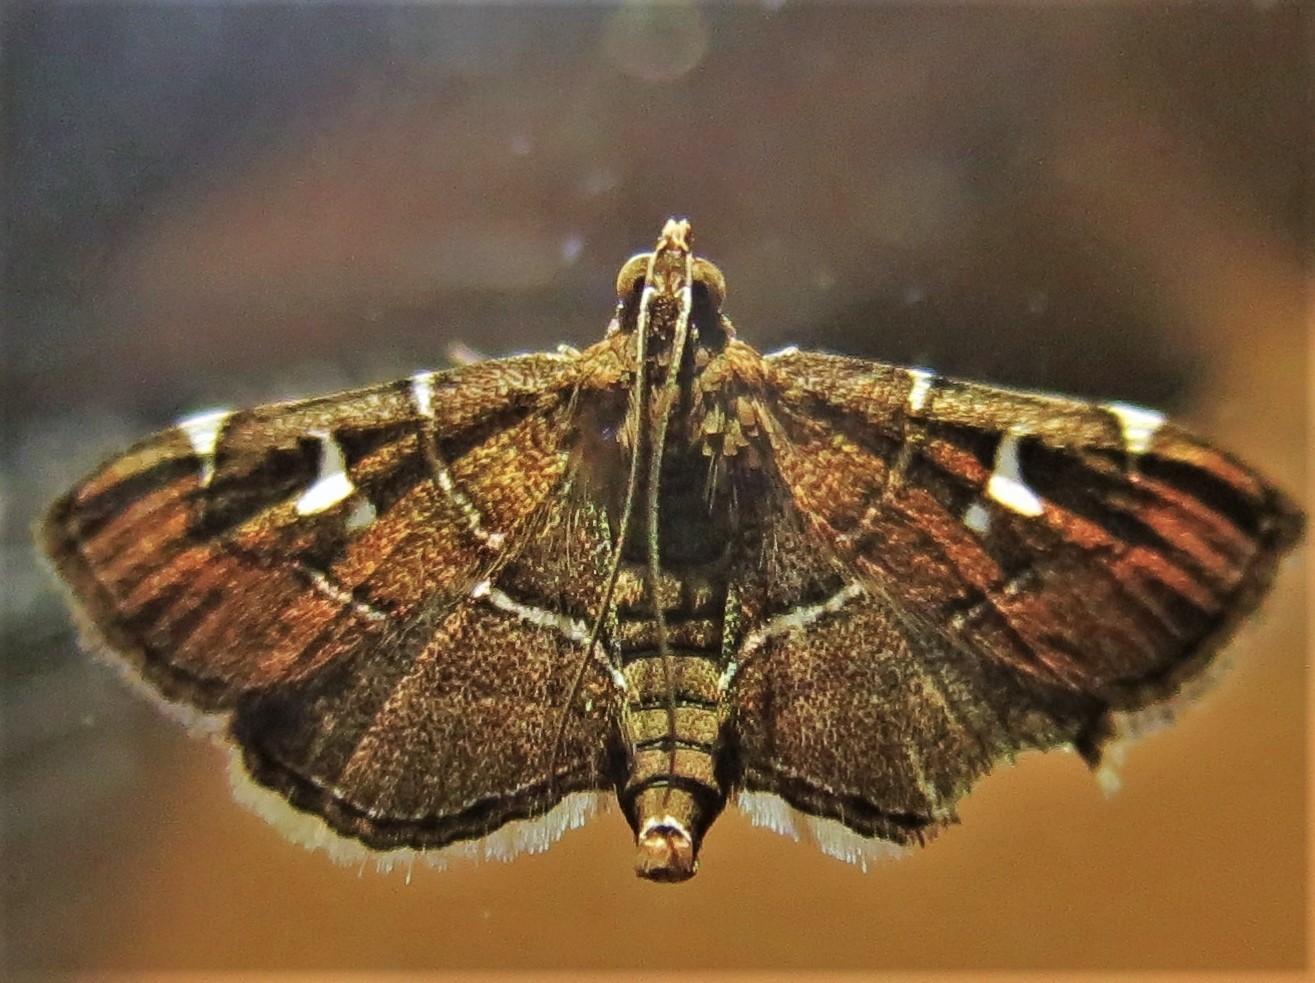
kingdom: Animalia
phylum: Arthropoda
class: Insecta
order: Lepidoptera
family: Crambidae
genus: Lamprosema
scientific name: Lamprosema victoriae
